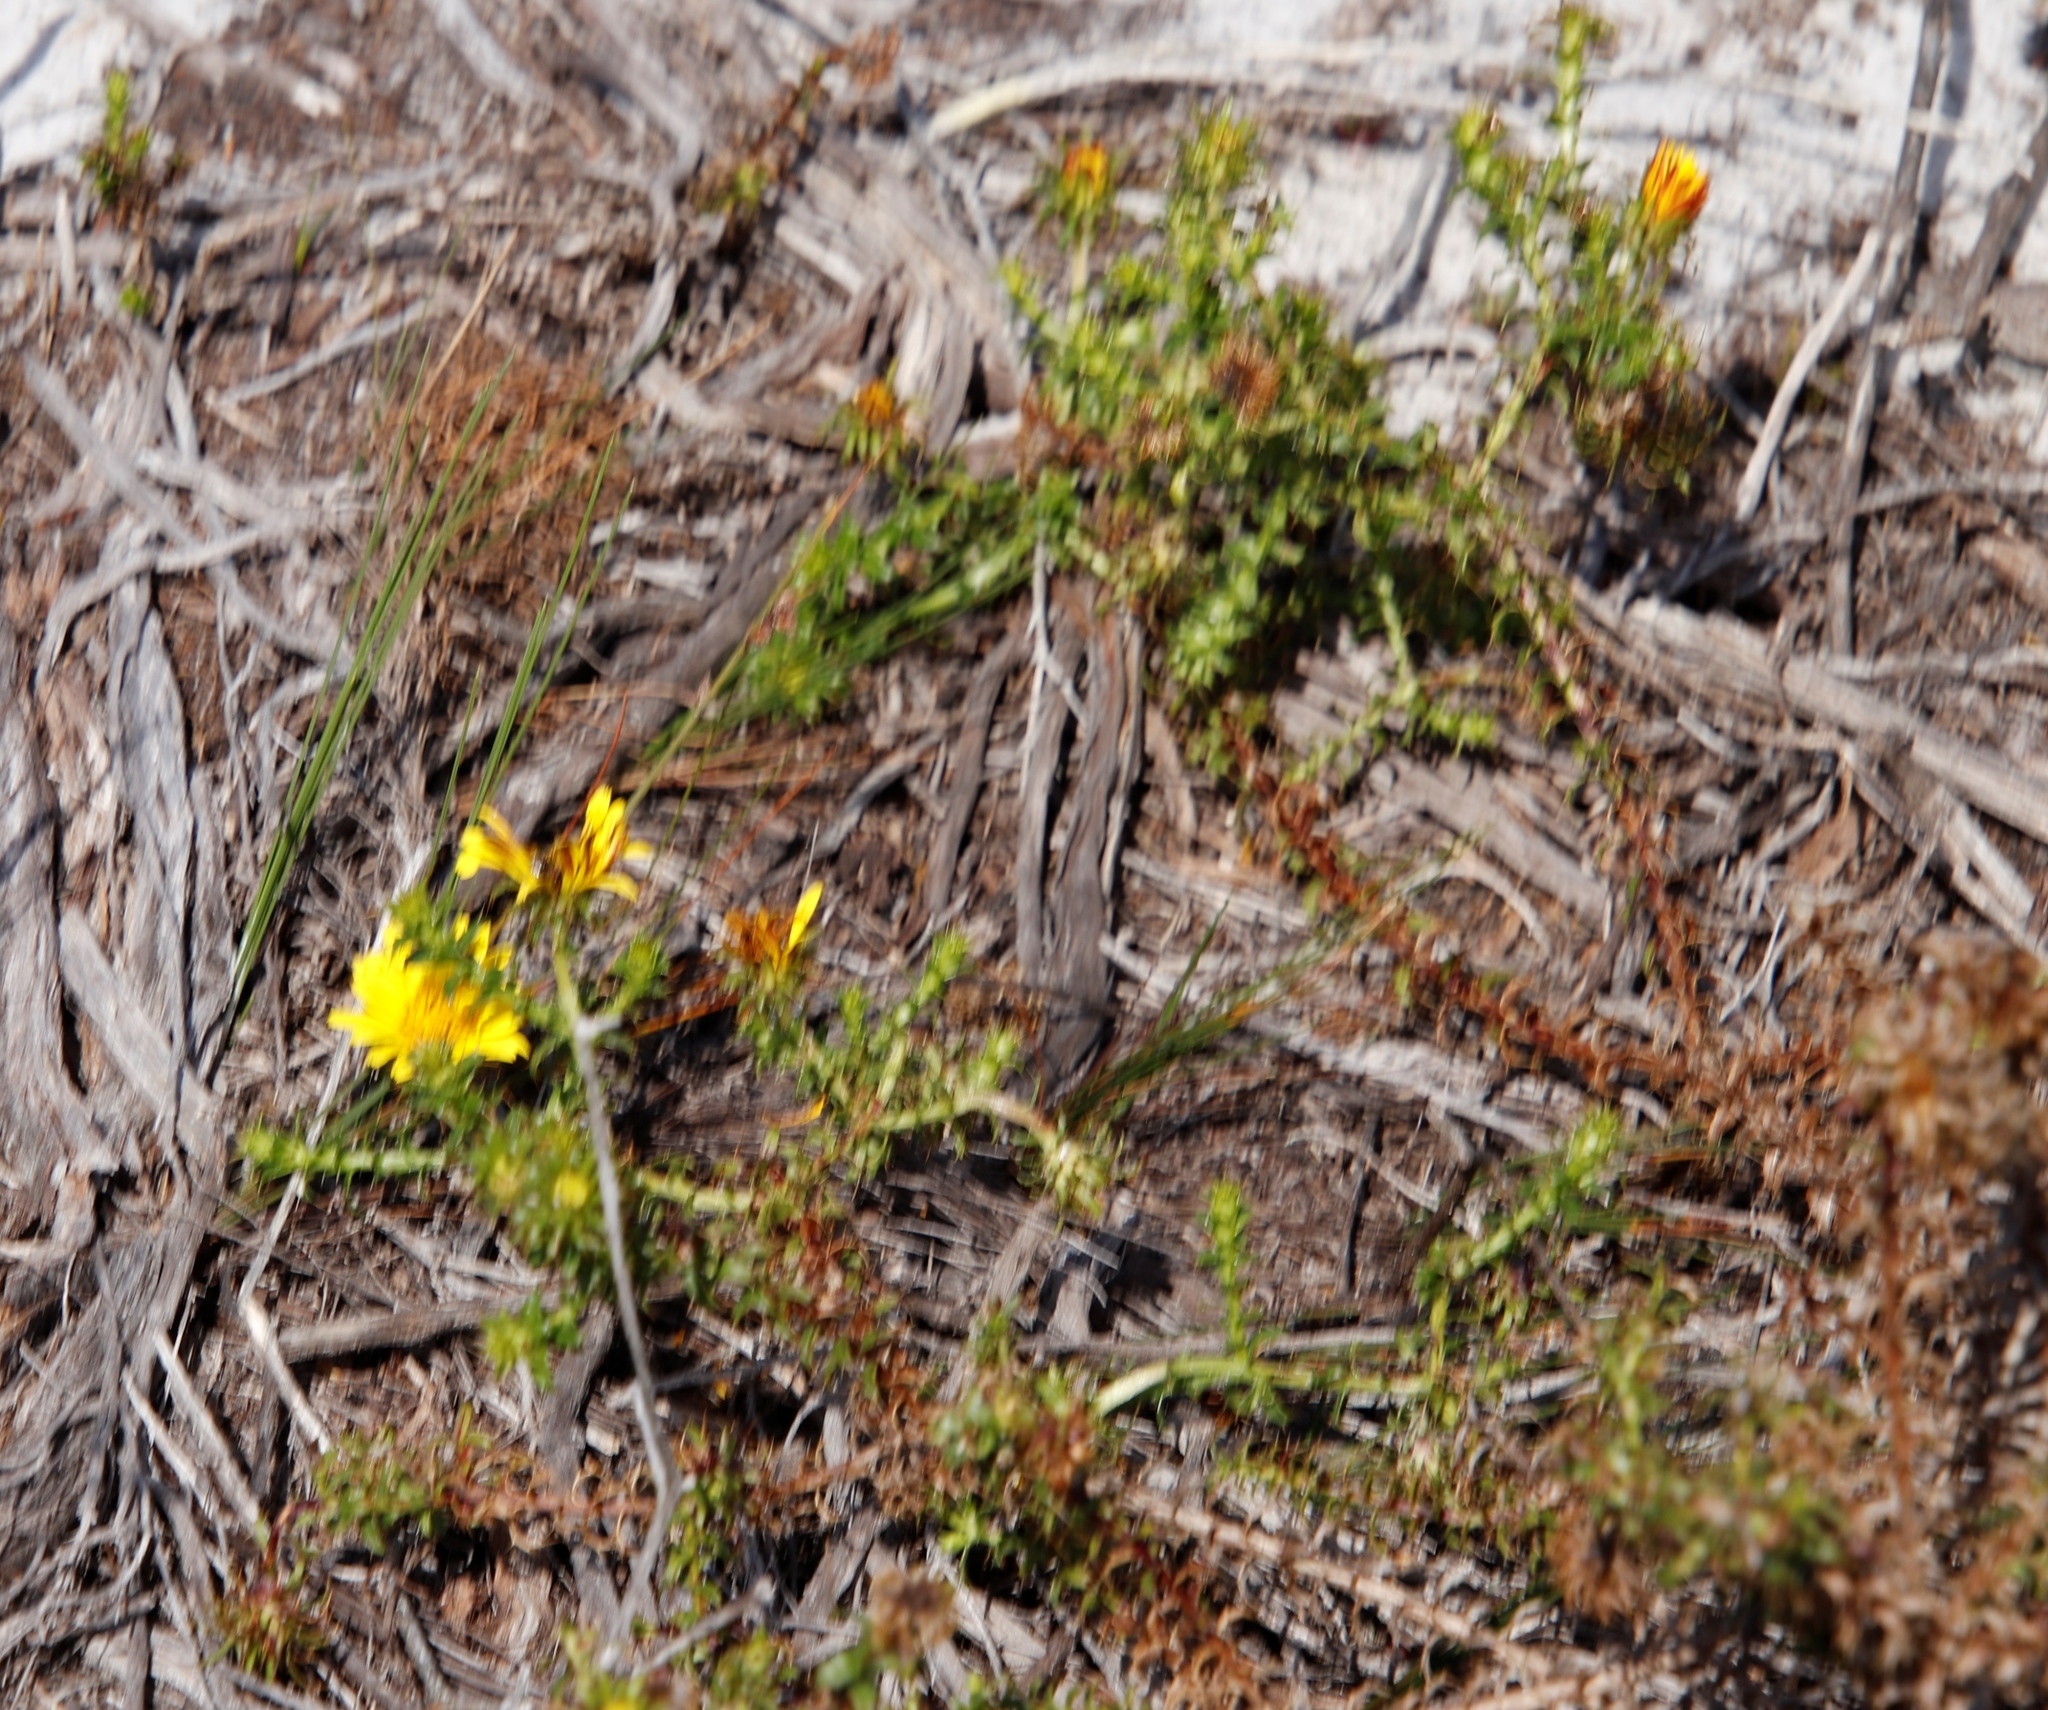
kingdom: Plantae
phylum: Tracheophyta
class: Magnoliopsida
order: Asterales
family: Asteraceae
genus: Cullumia
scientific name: Cullumia setosa
